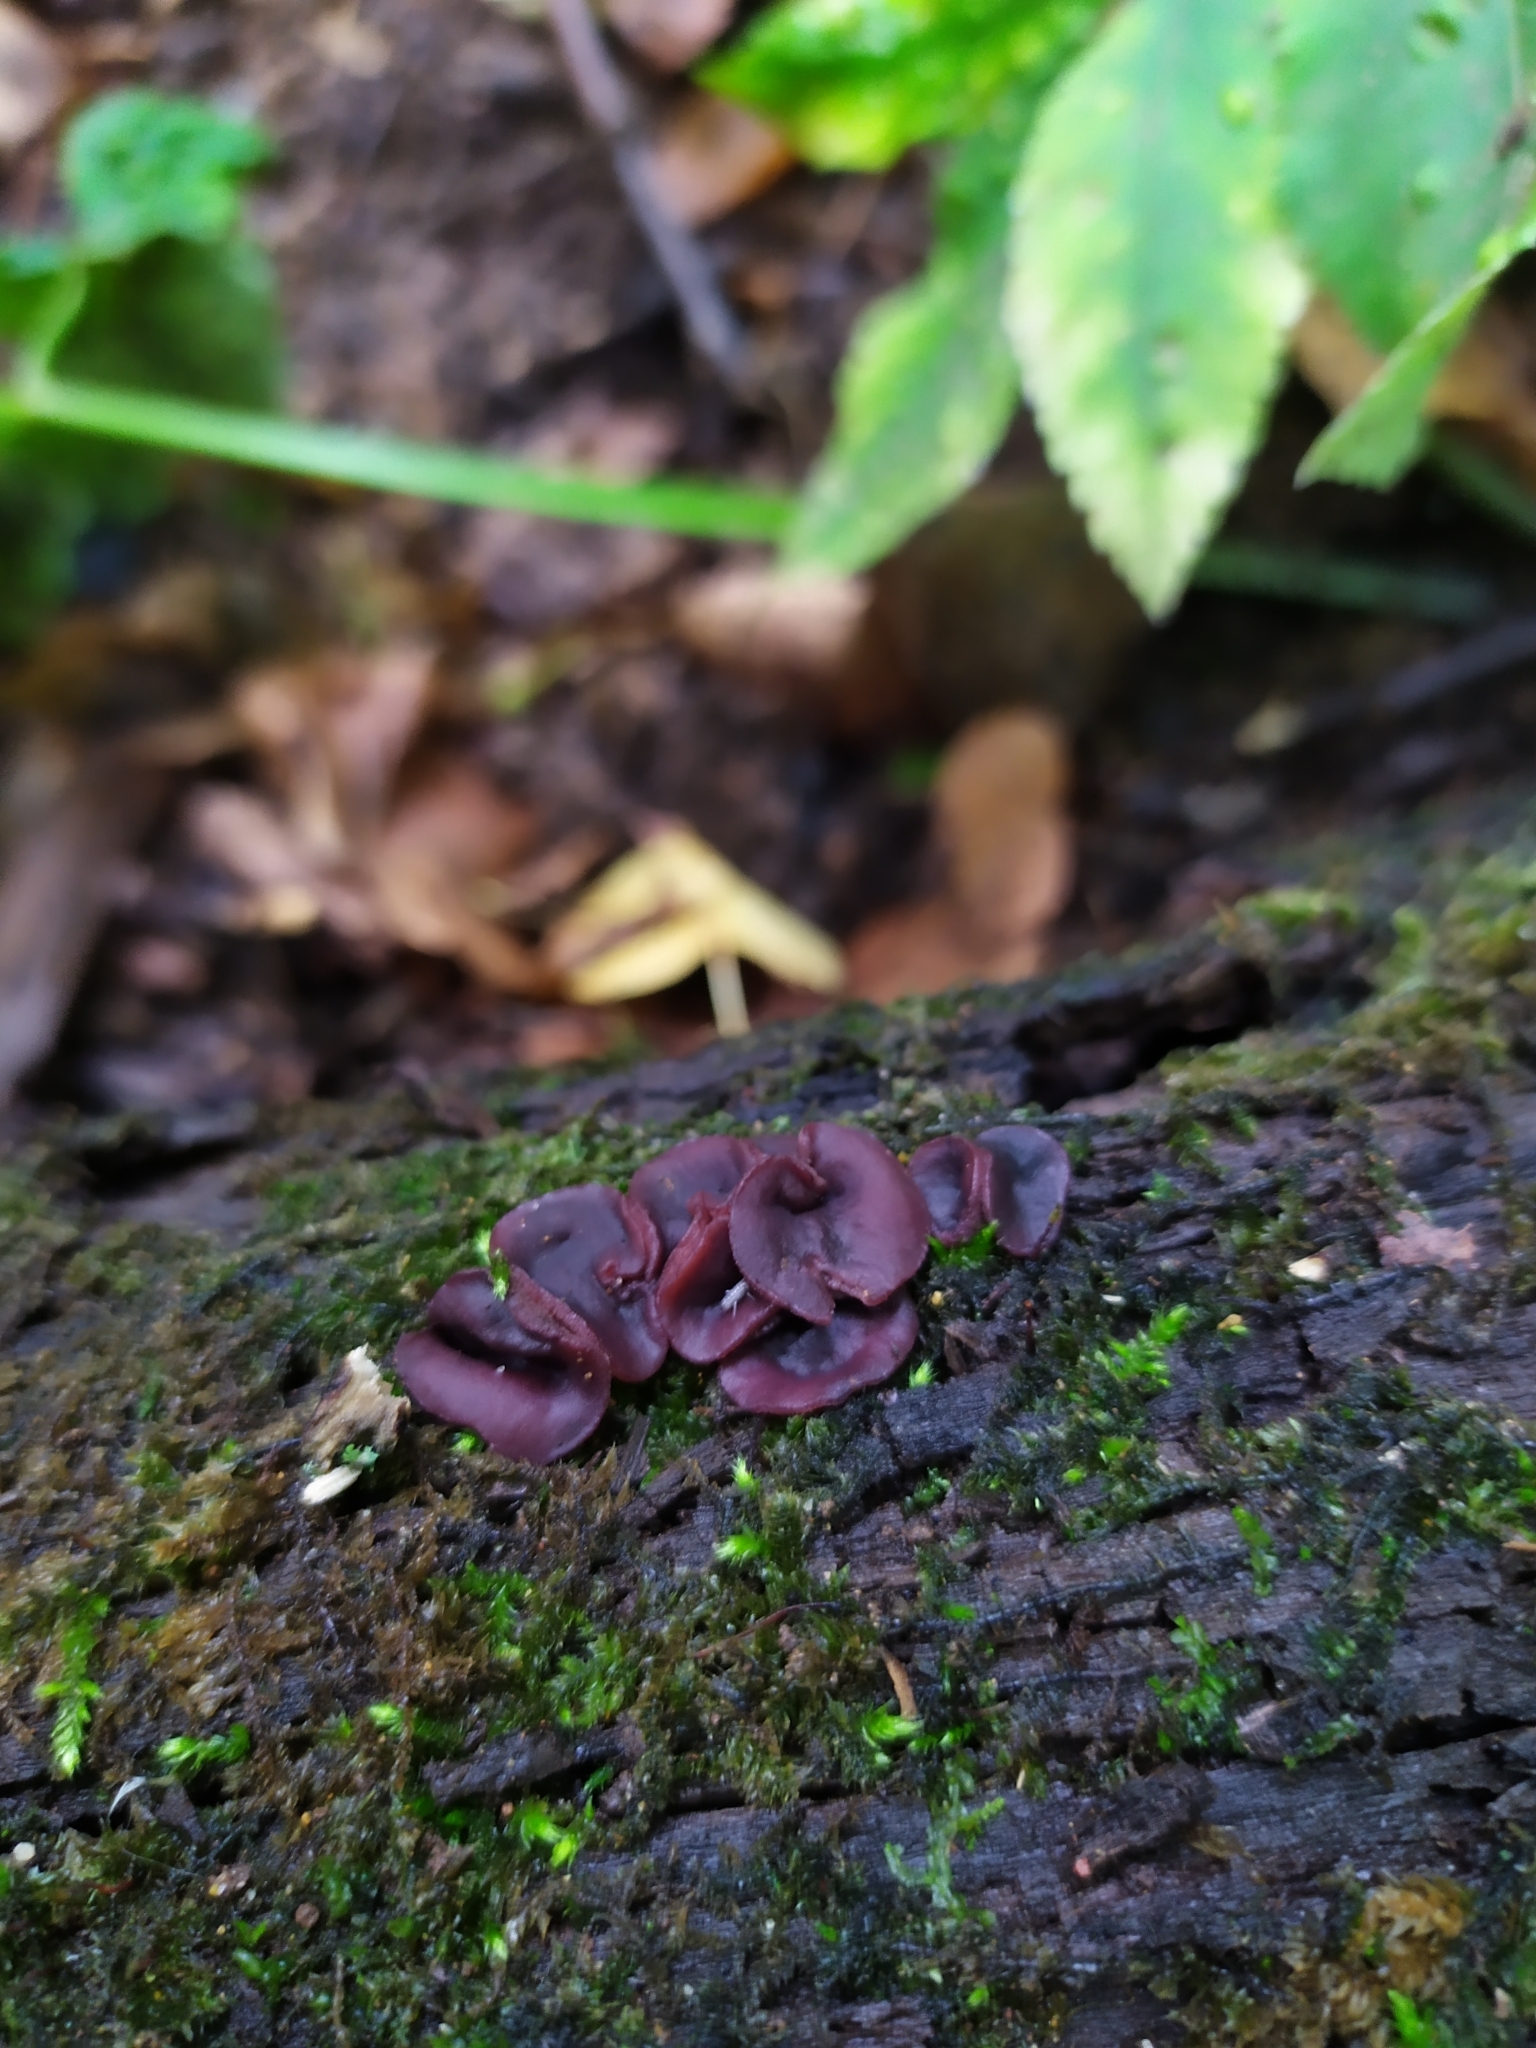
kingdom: Fungi
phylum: Ascomycota
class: Leotiomycetes
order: Helotiales
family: Gelatinodiscaceae
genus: Ascocoryne
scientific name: Ascocoryne cylichnium
